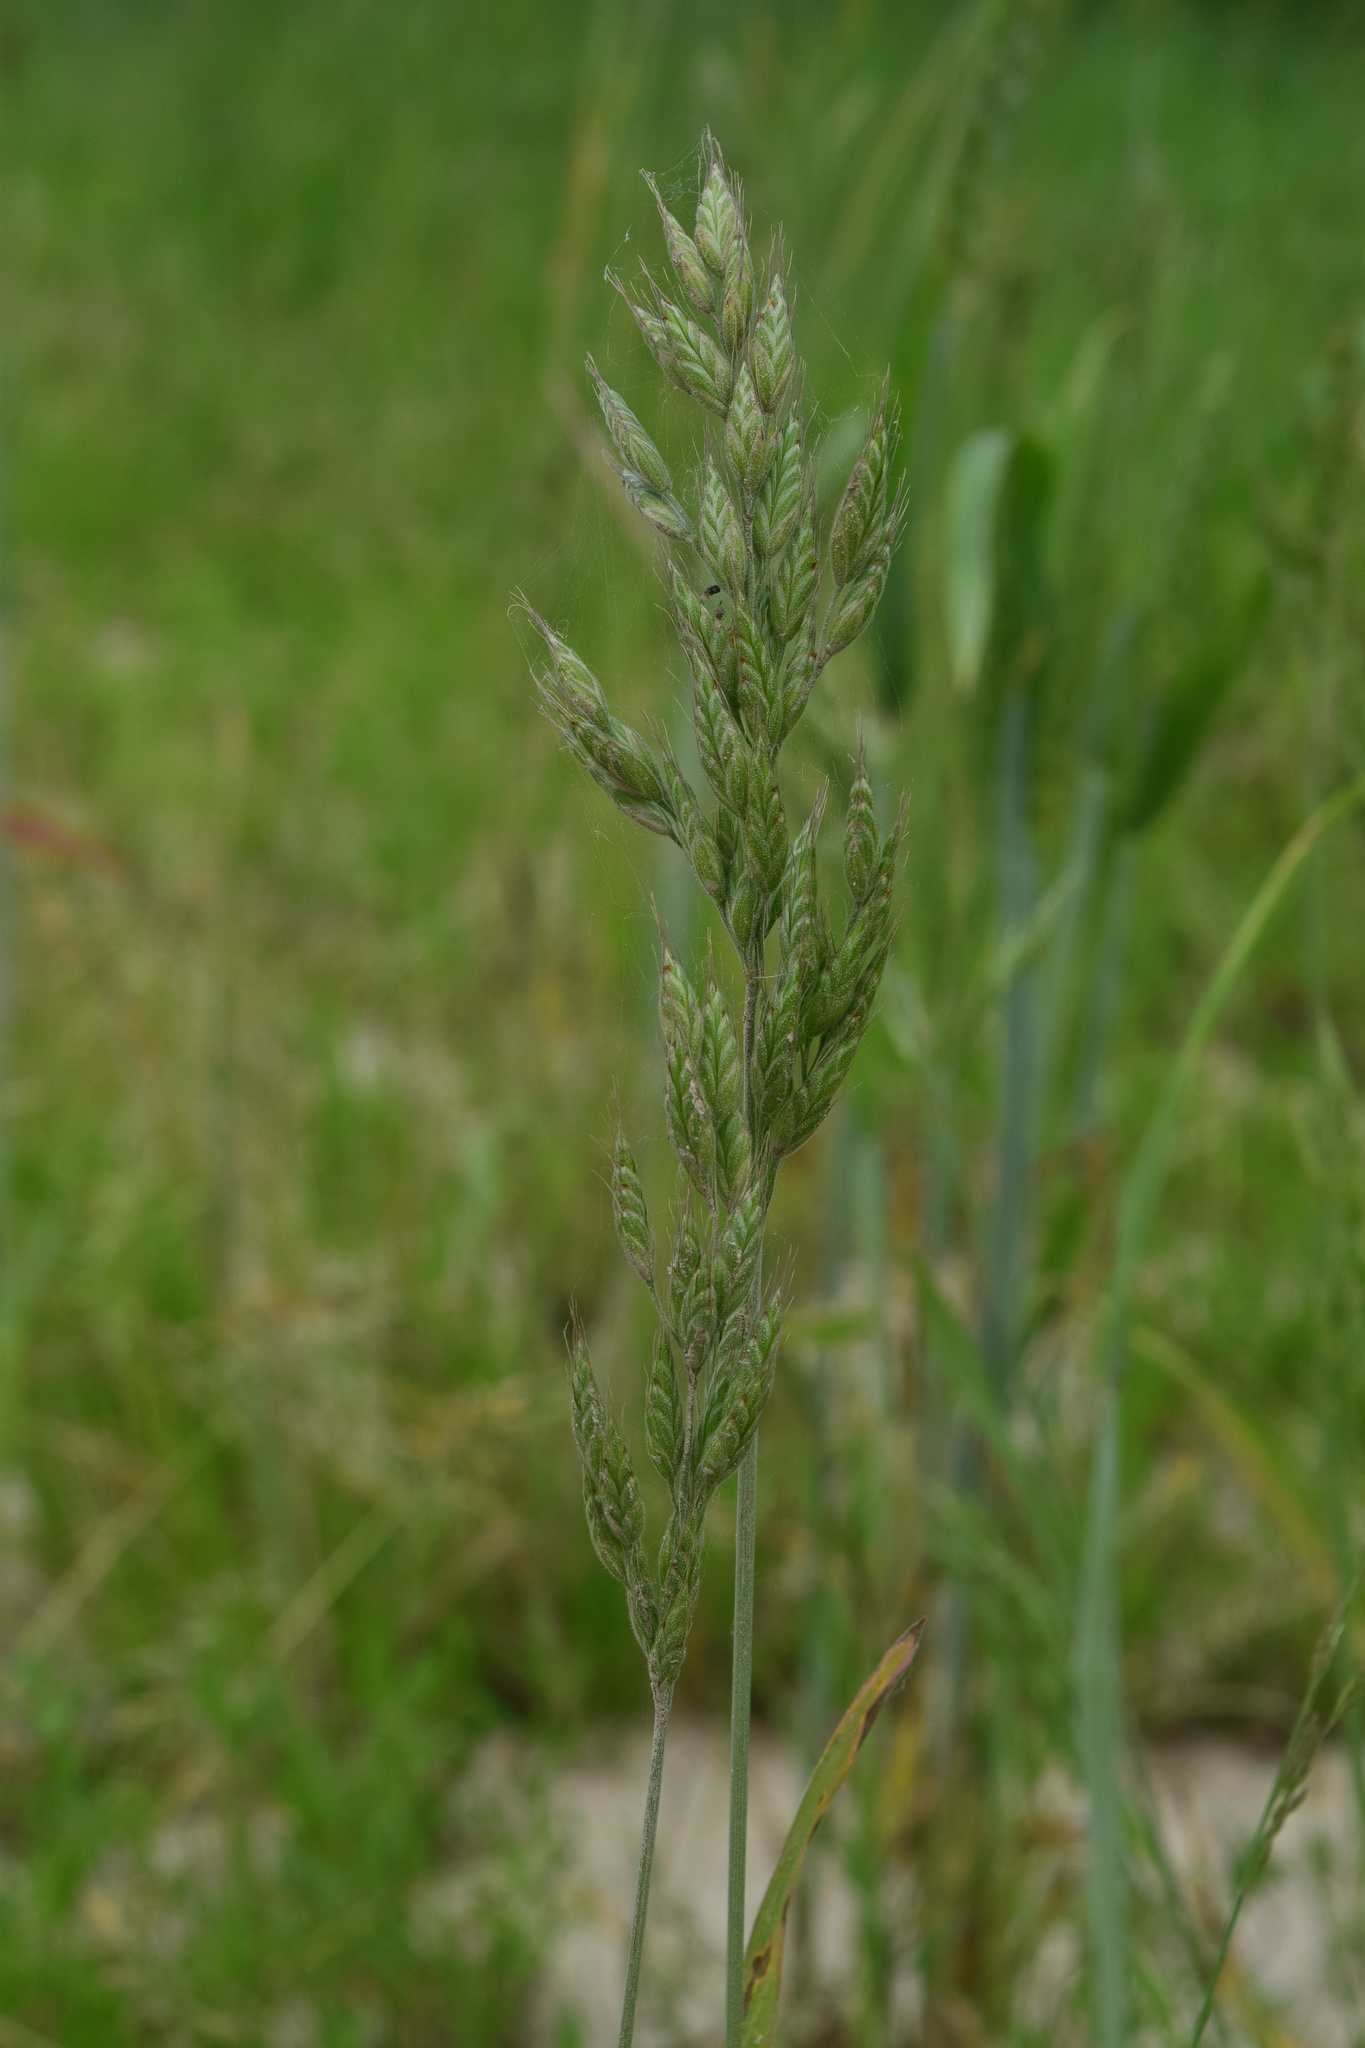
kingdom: Plantae
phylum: Tracheophyta
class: Liliopsida
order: Poales
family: Poaceae
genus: Bromus
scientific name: Bromus hordeaceus
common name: Soft brome
